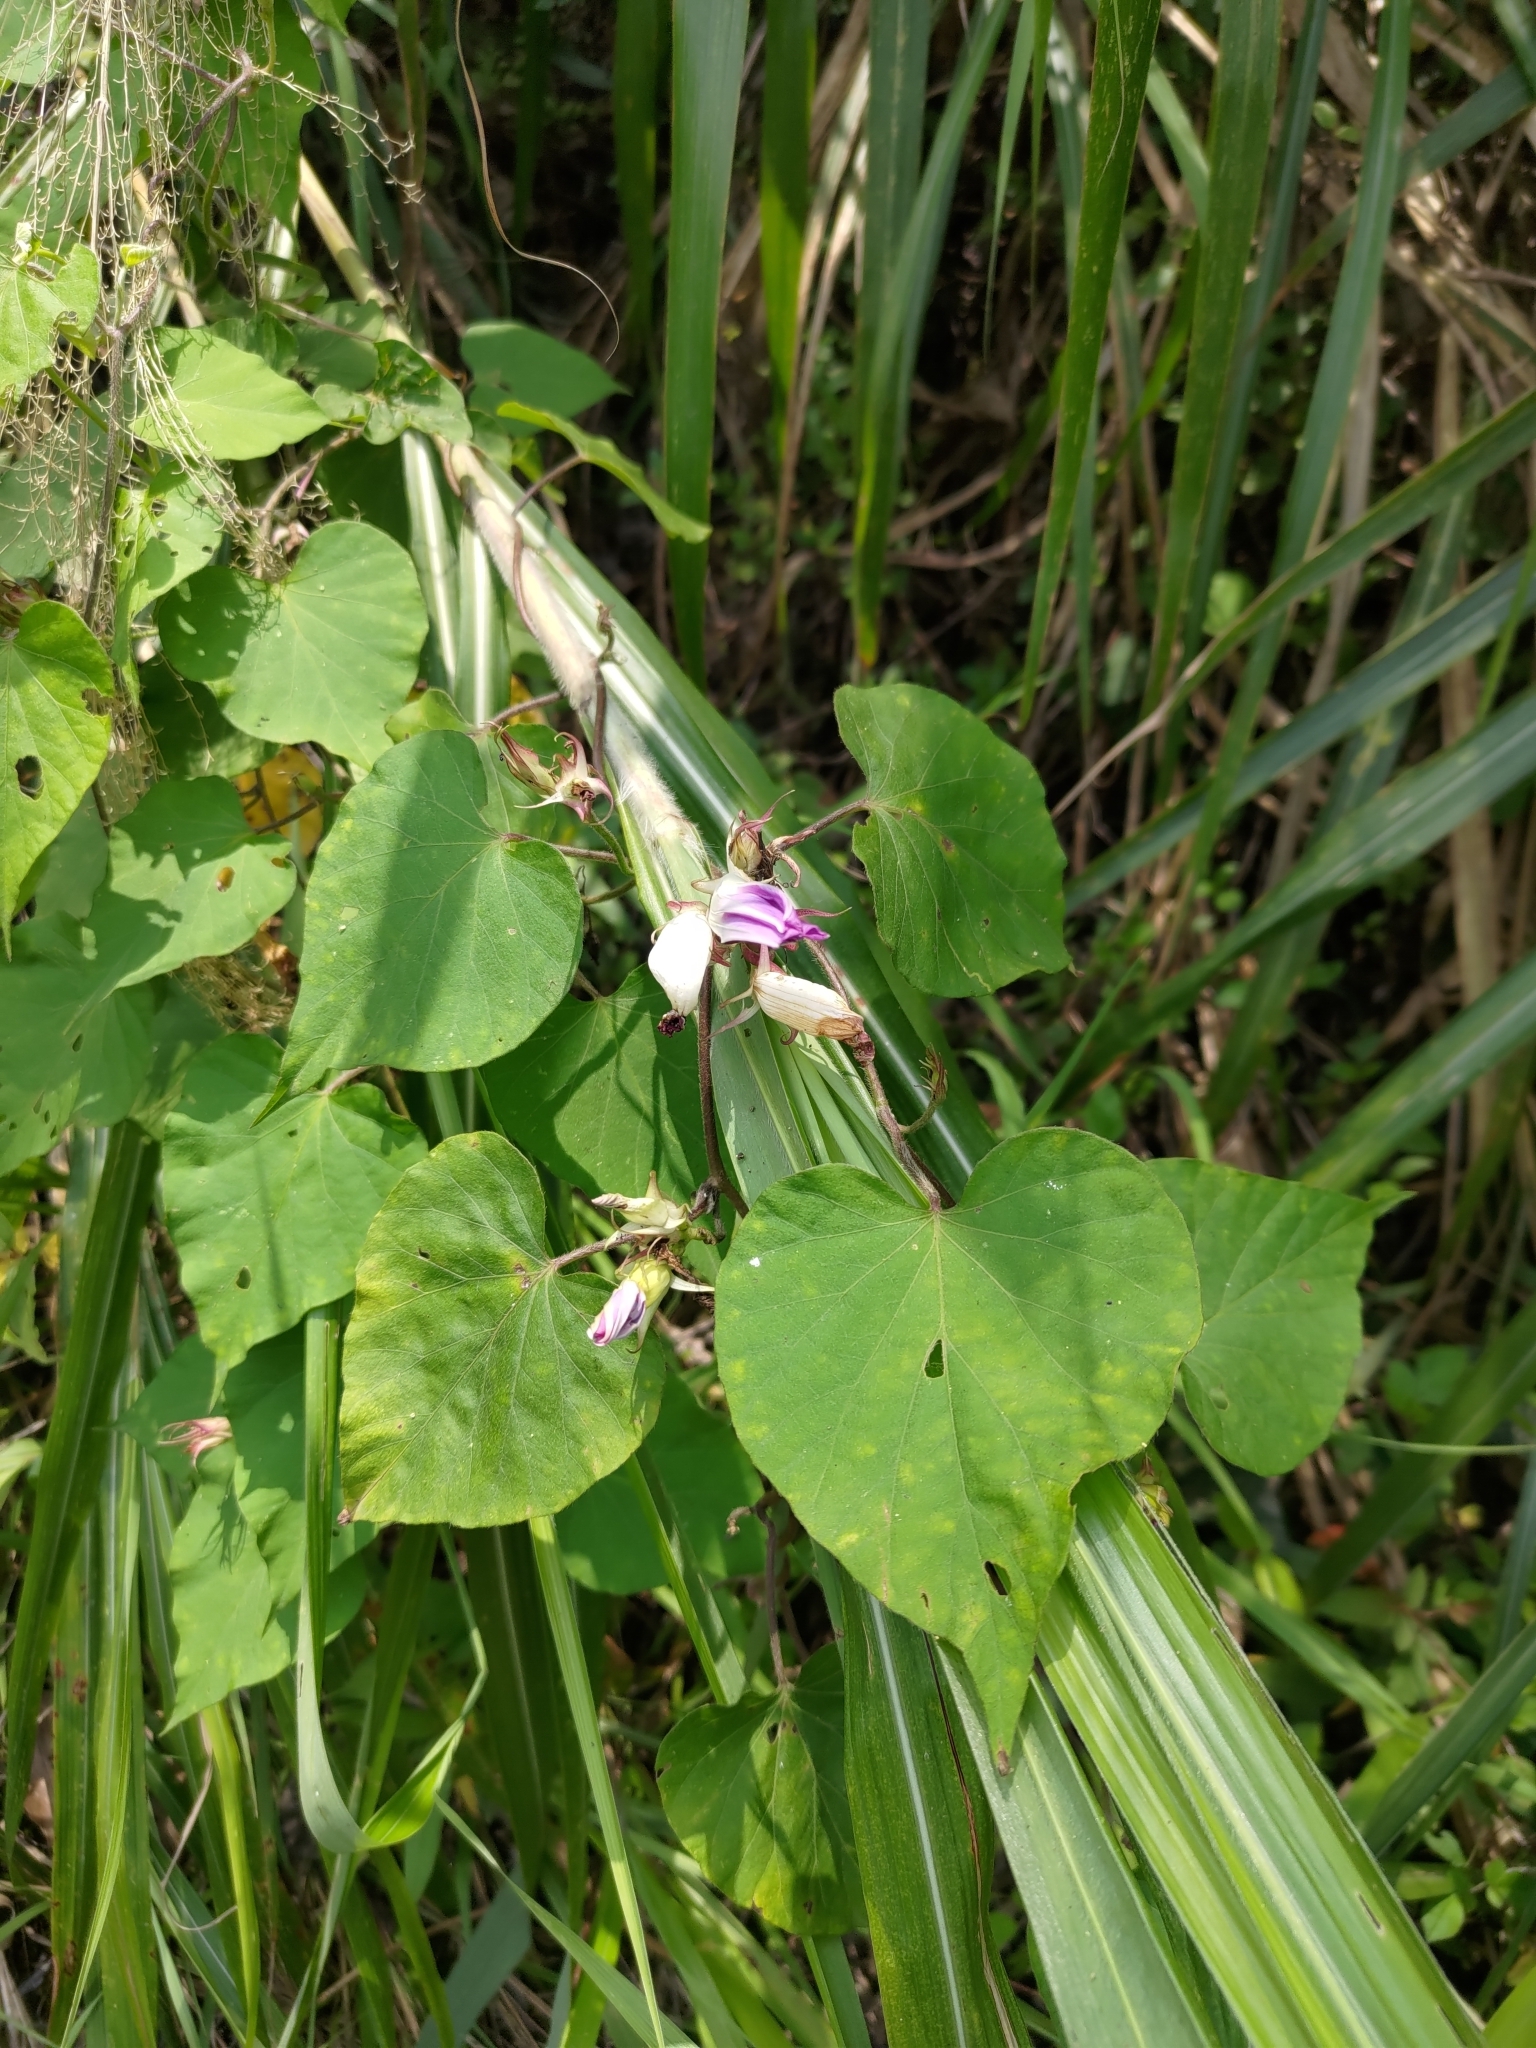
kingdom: Plantae
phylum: Tracheophyta
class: Magnoliopsida
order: Solanales
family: Convolvulaceae
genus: Ipomoea
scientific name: Ipomoea indica
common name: Blue dawnflower
